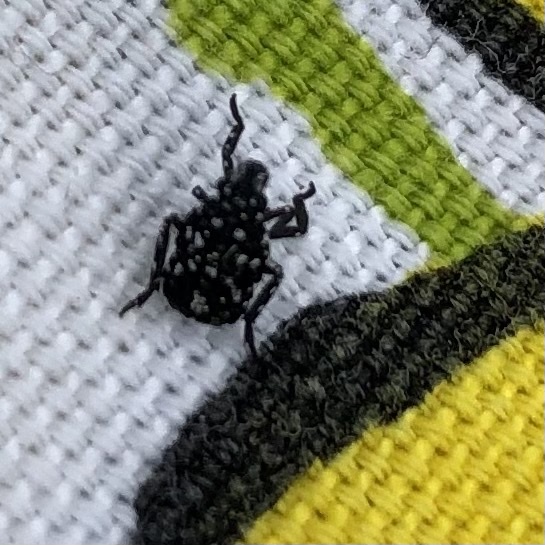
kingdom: Animalia
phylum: Arthropoda
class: Insecta
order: Hemiptera
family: Fulgoridae
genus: Lycorma
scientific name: Lycorma delicatula
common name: Spotted lanternfly
